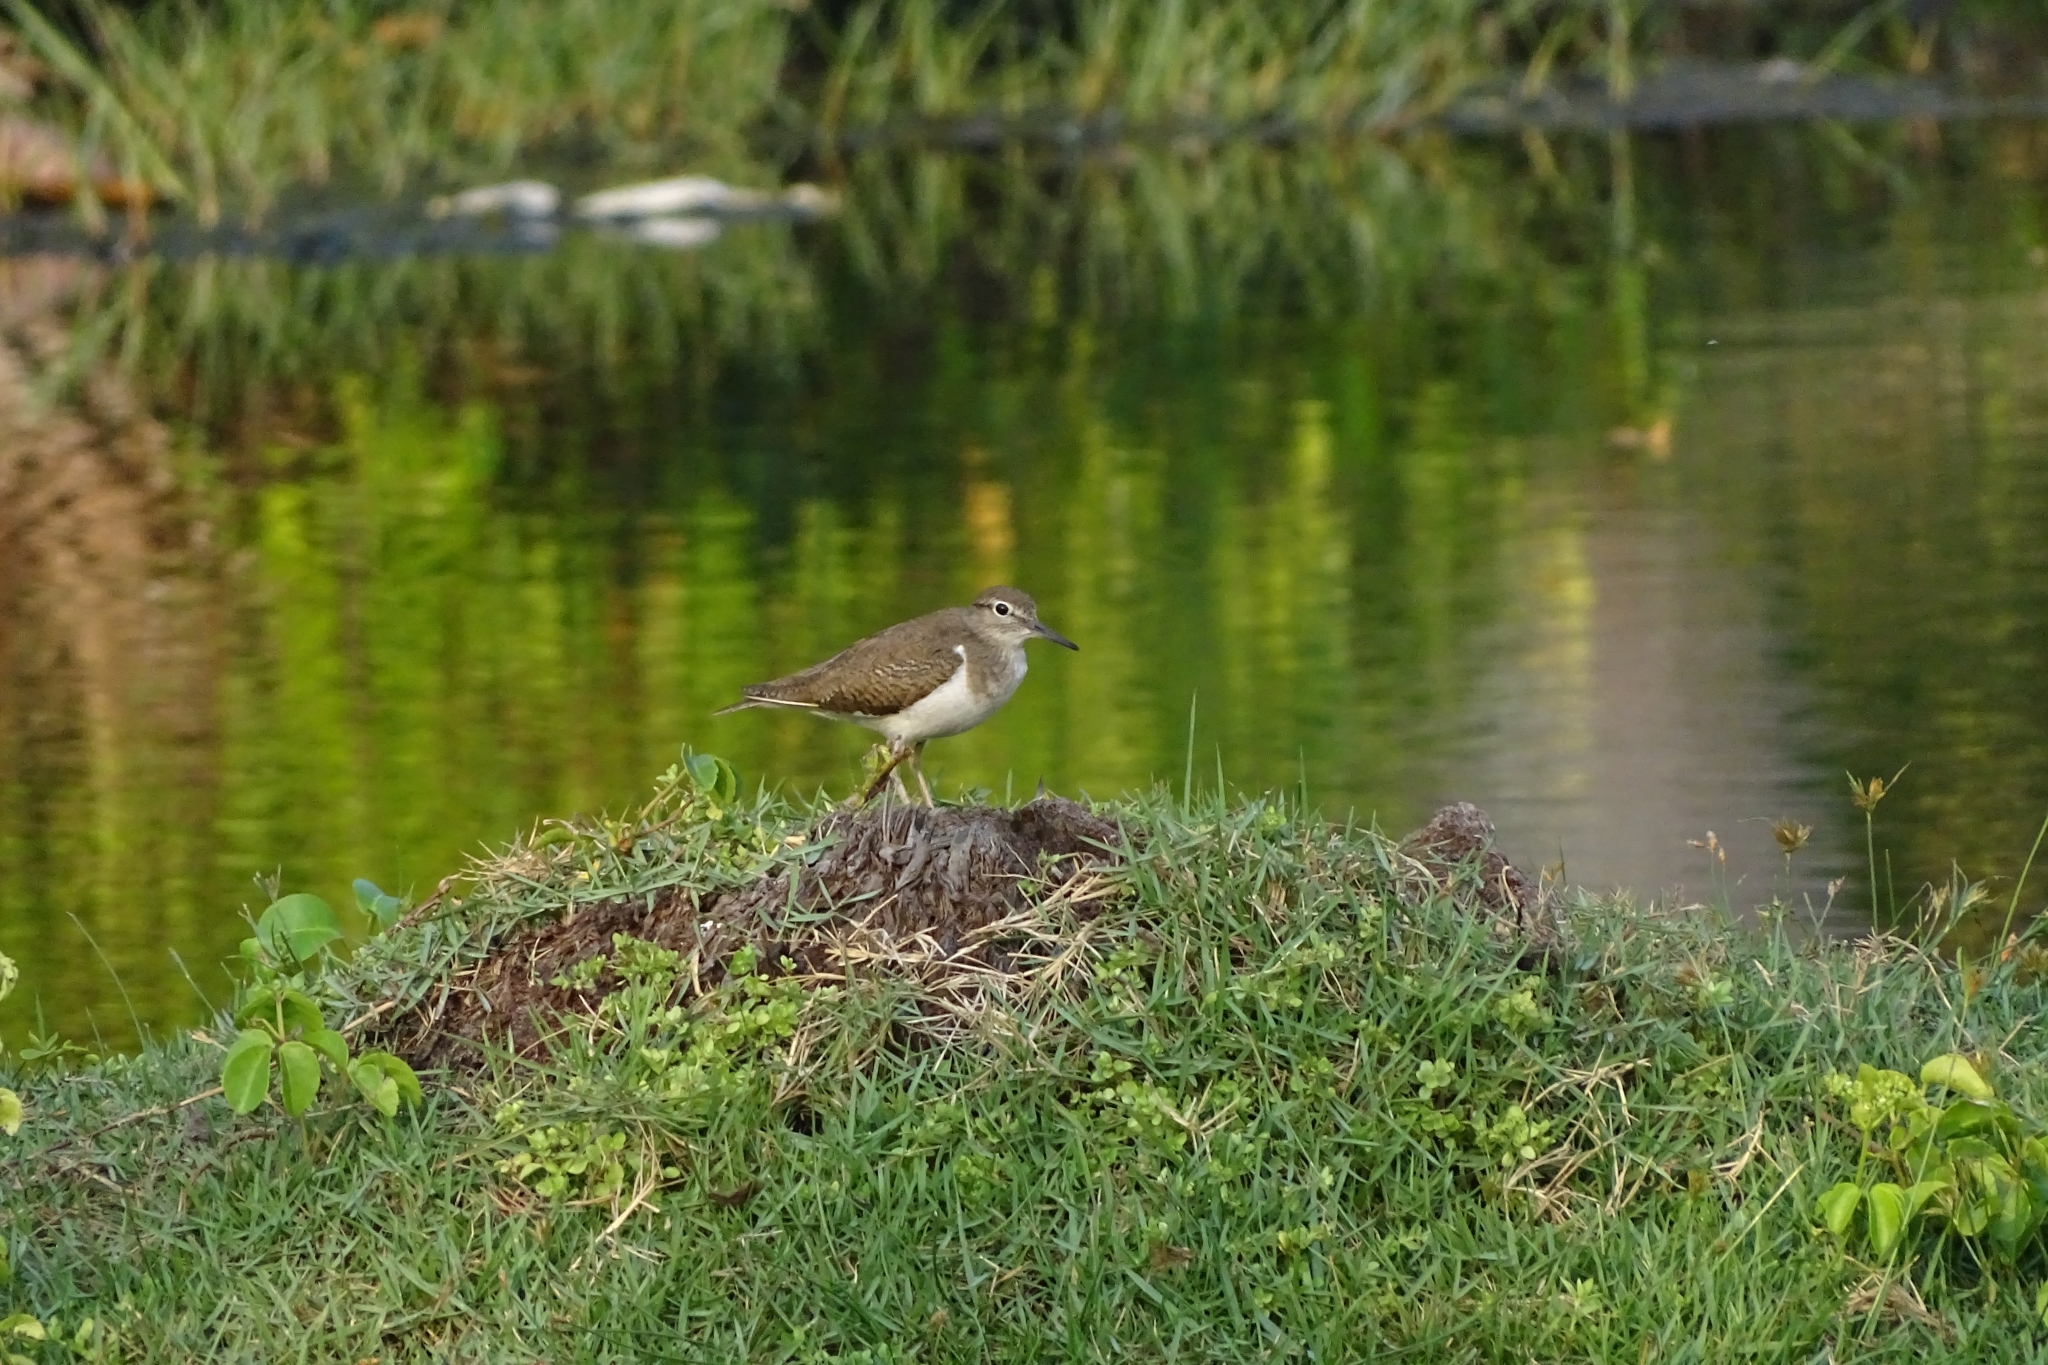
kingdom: Animalia
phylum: Chordata
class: Aves
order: Charadriiformes
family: Scolopacidae
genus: Actitis
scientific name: Actitis hypoleucos
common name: Common sandpiper
